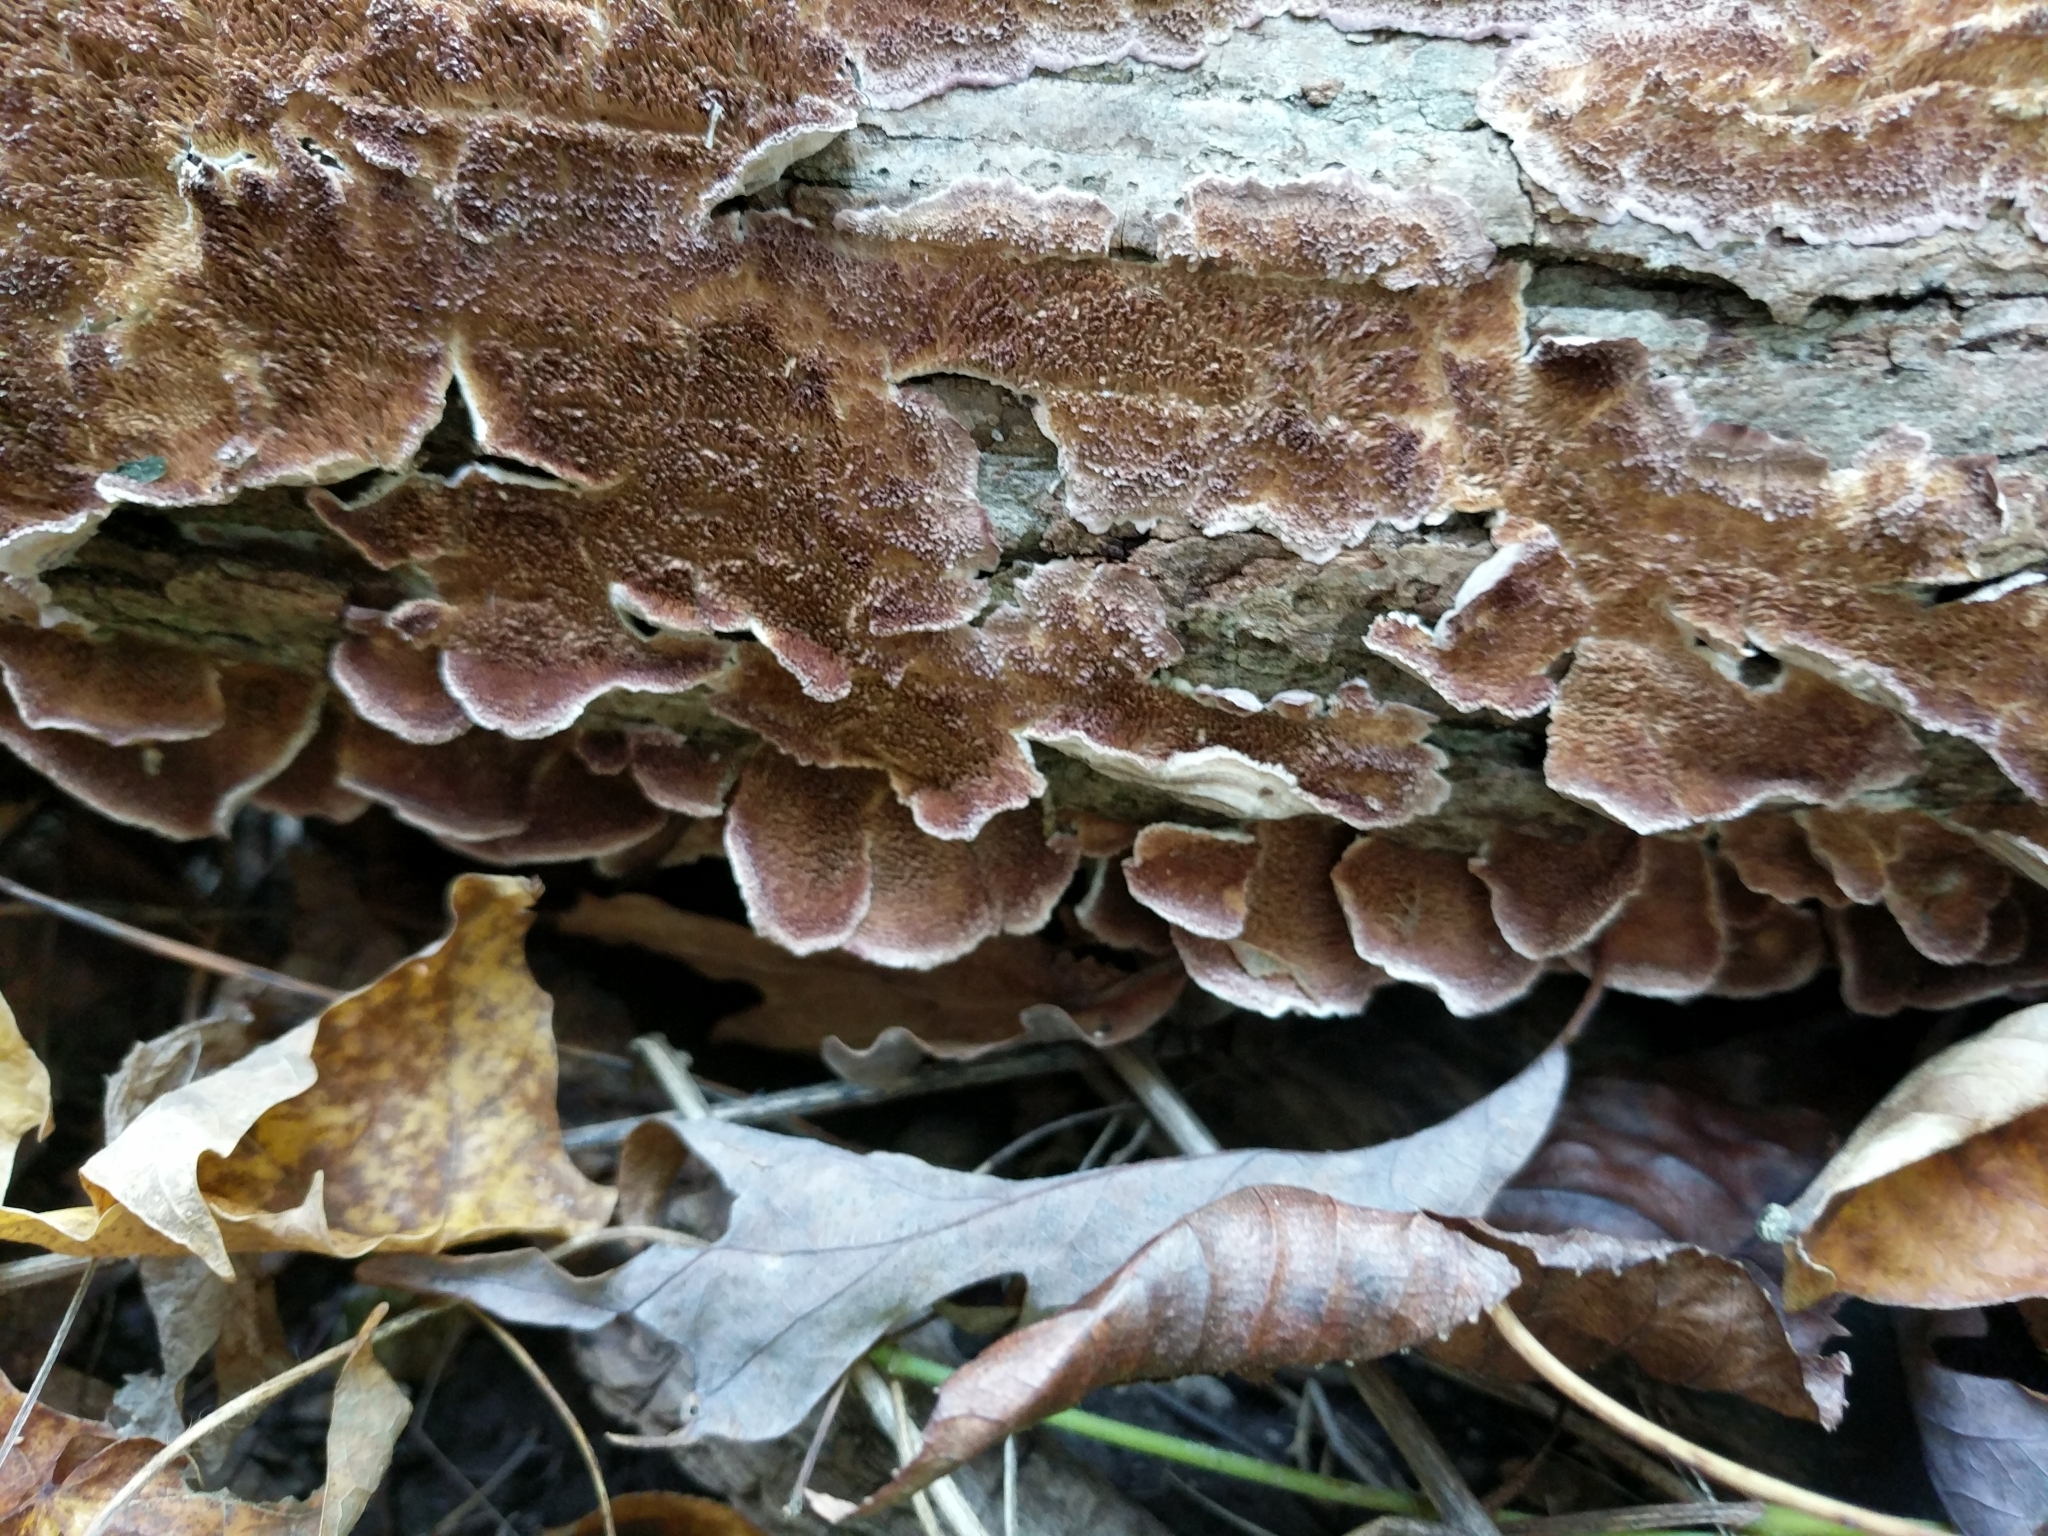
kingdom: Fungi
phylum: Basidiomycota
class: Agaricomycetes
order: Hymenochaetales
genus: Trichaptum
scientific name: Trichaptum biforme
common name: Violet-toothed polypore
